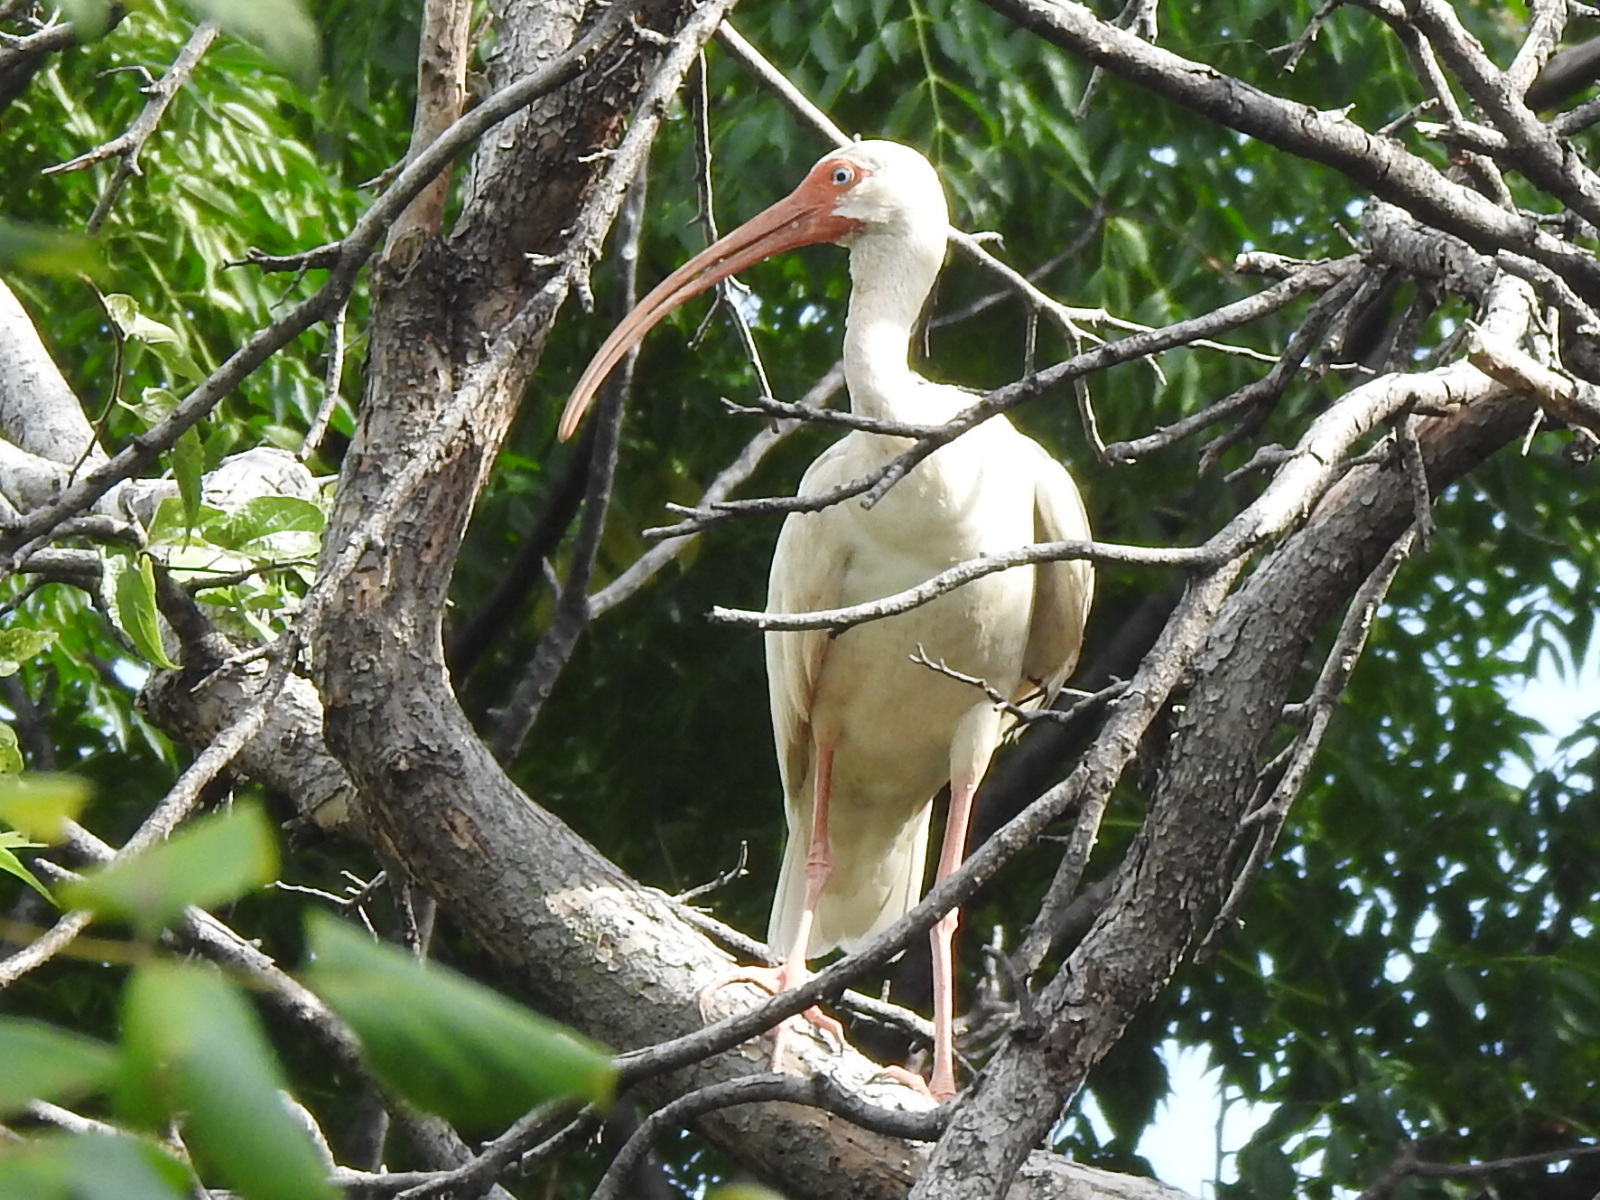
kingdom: Animalia
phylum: Chordata
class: Aves
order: Pelecaniformes
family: Threskiornithidae
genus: Eudocimus
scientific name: Eudocimus albus
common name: White ibis
